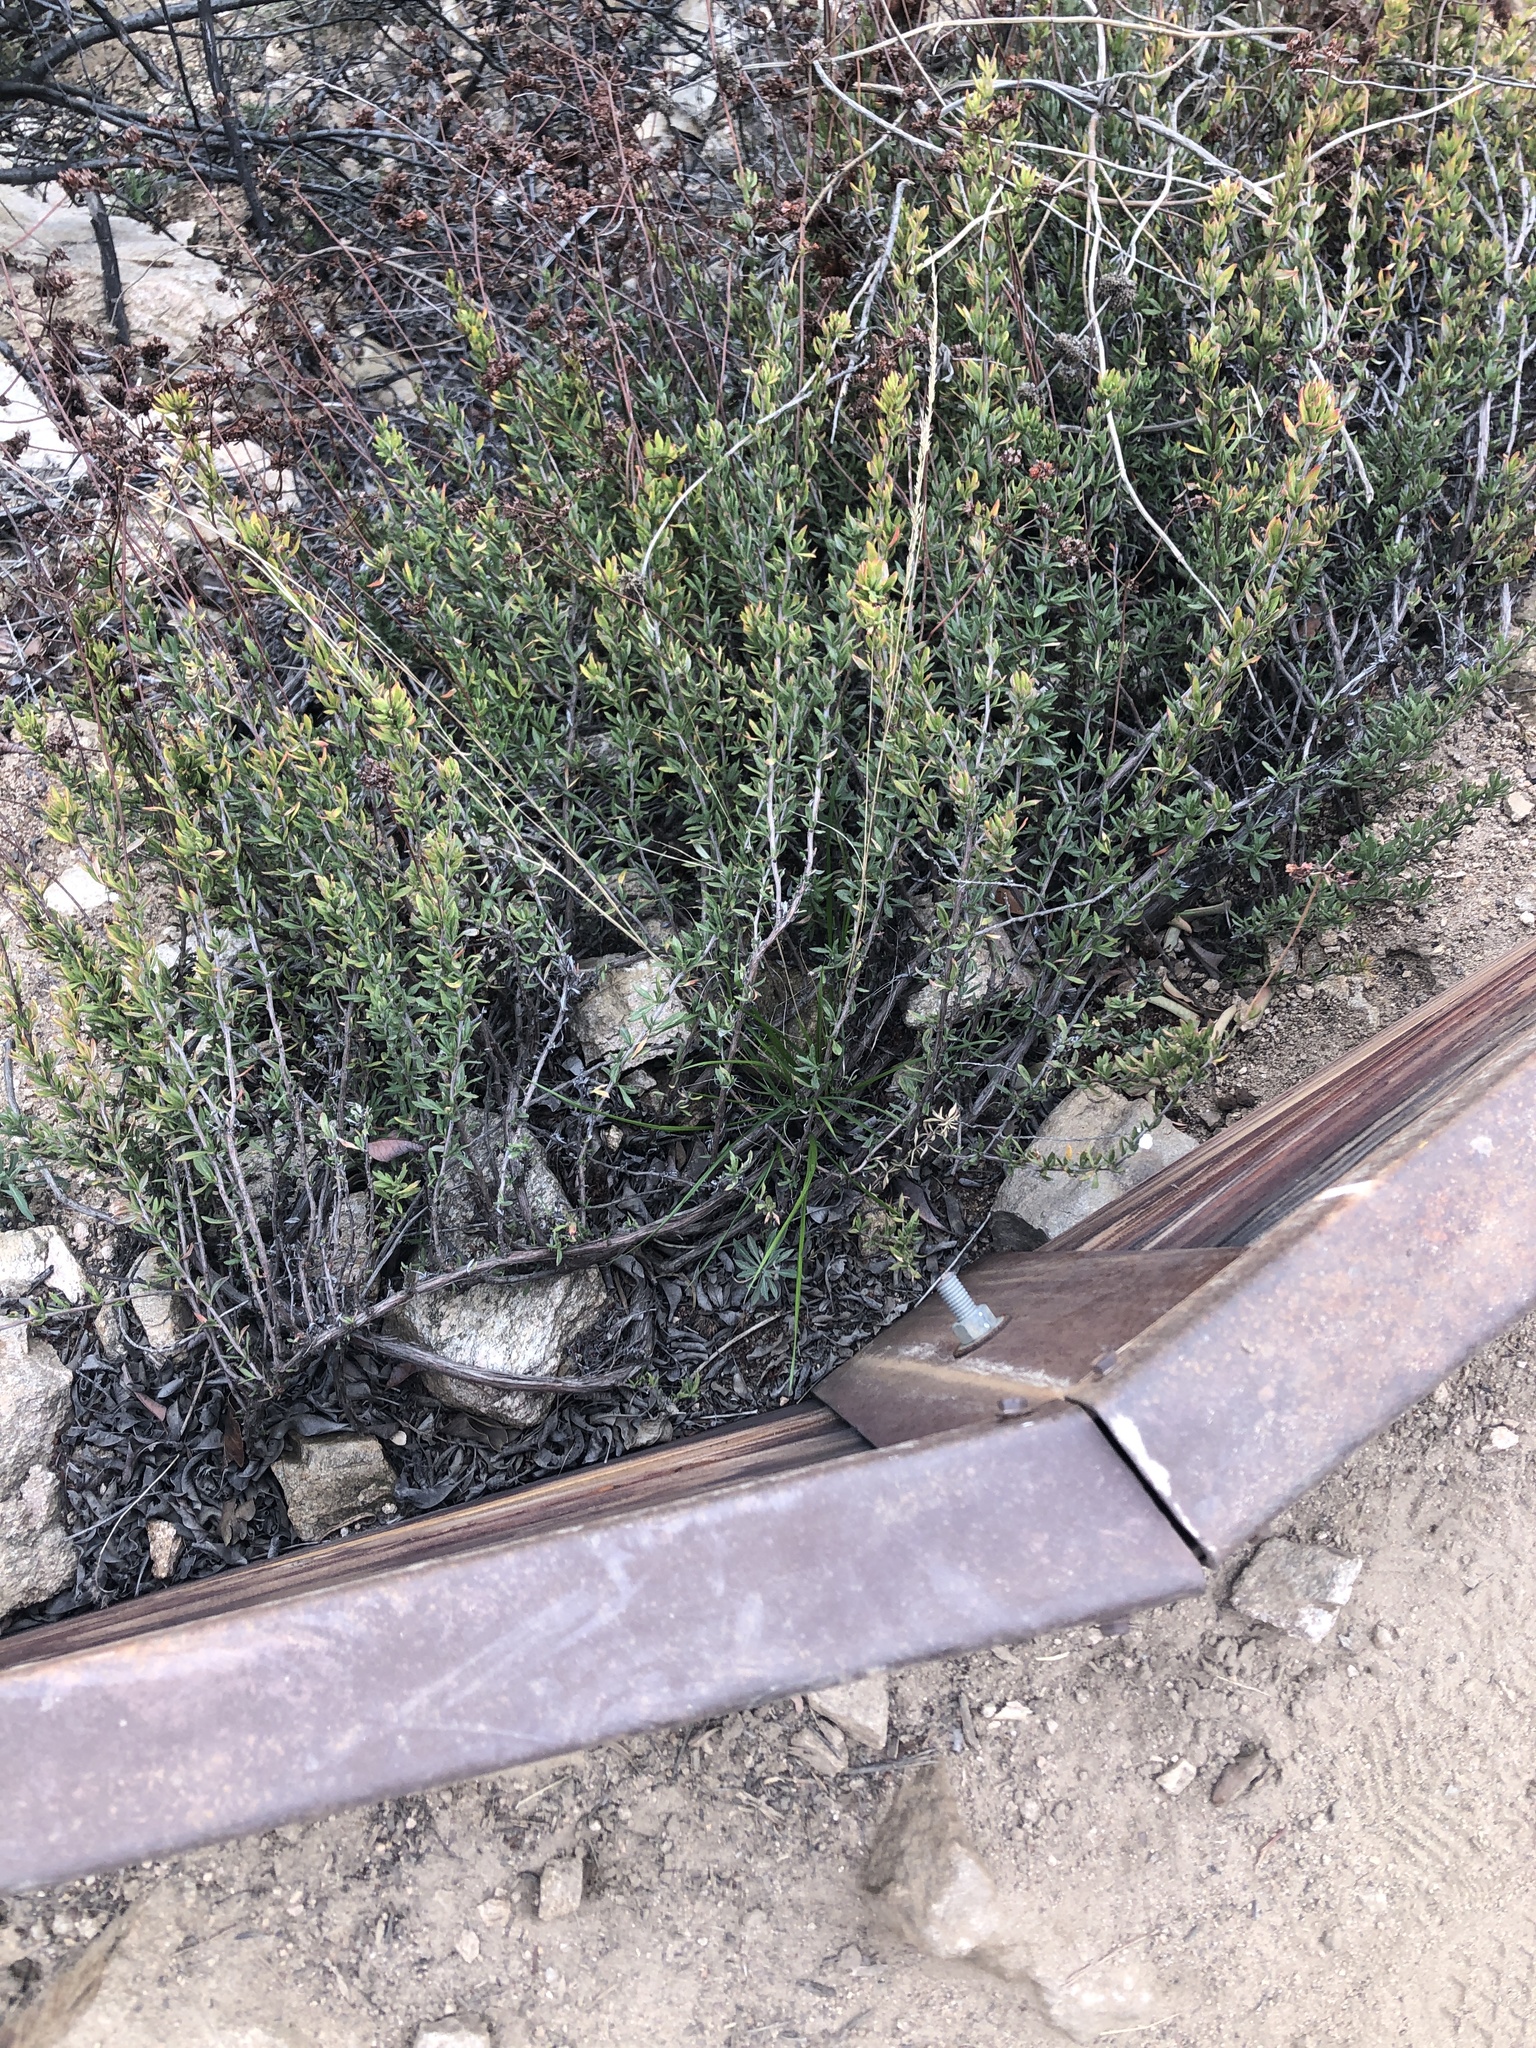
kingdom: Plantae
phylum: Tracheophyta
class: Magnoliopsida
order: Caryophyllales
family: Polygonaceae
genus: Eriogonum
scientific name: Eriogonum fasciculatum
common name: California wild buckwheat
